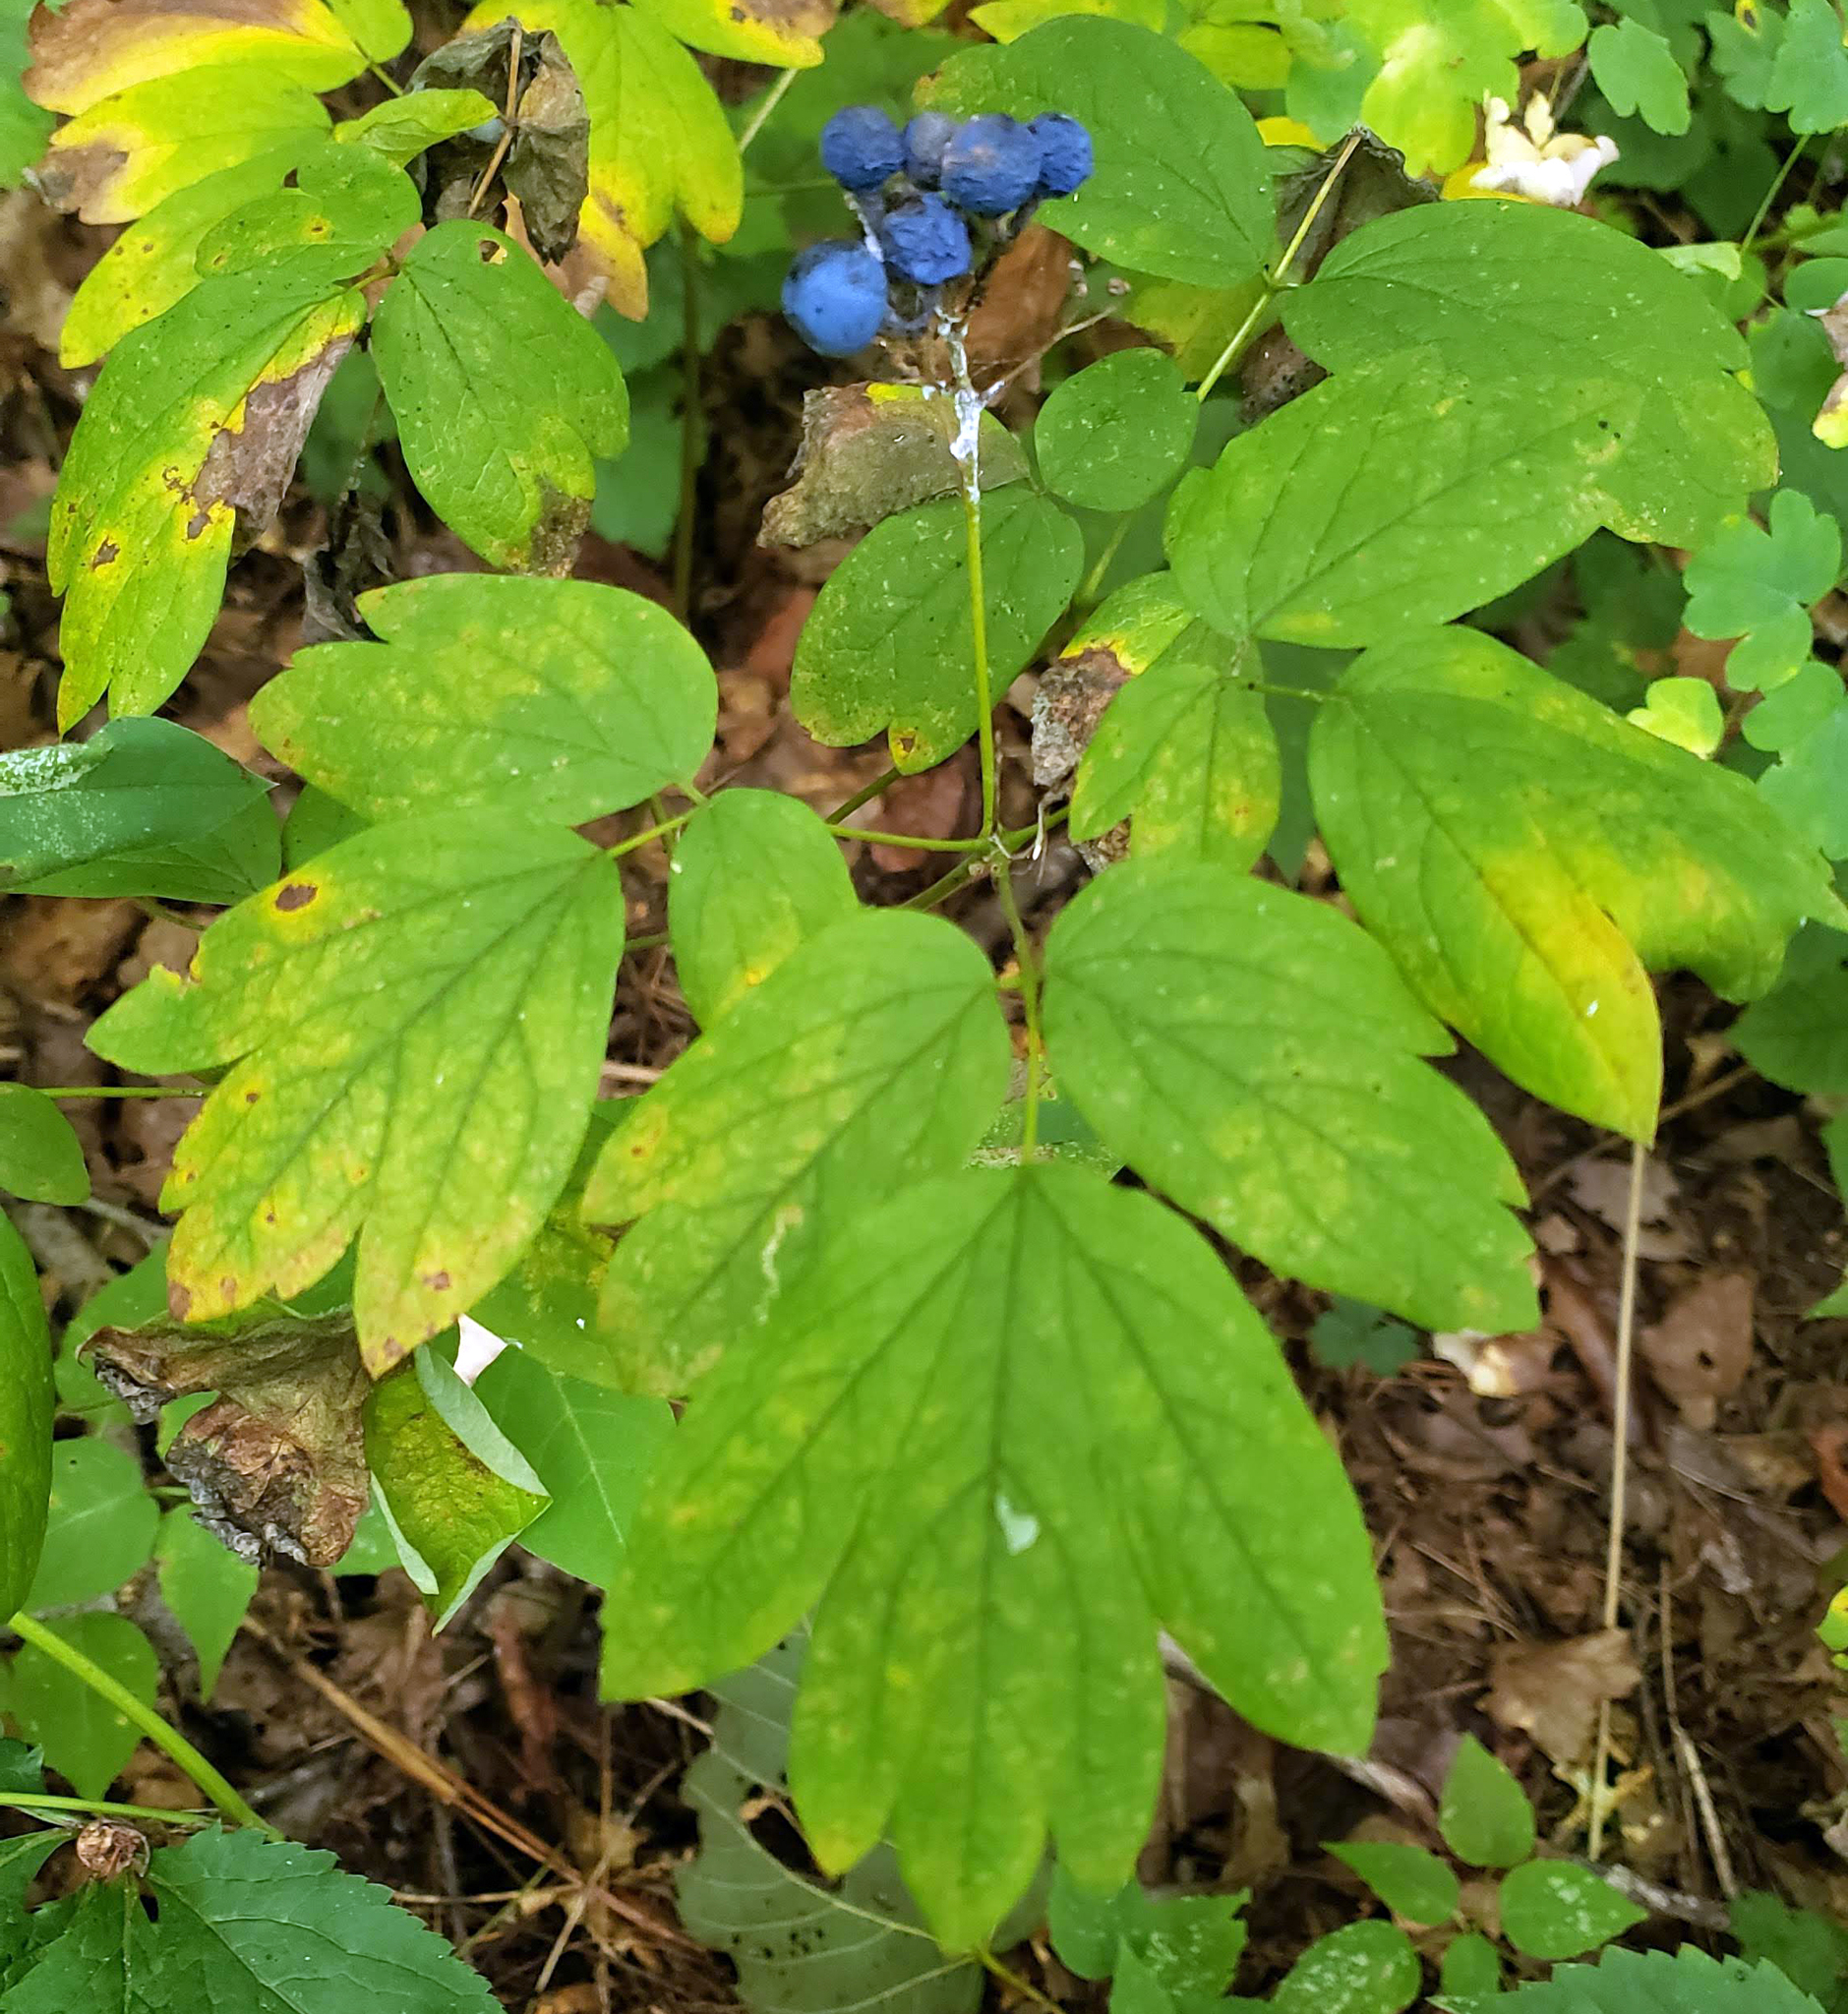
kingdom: Plantae
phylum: Tracheophyta
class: Magnoliopsida
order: Ranunculales
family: Berberidaceae
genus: Caulophyllum
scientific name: Caulophyllum thalictroides
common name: Blue cohosh
